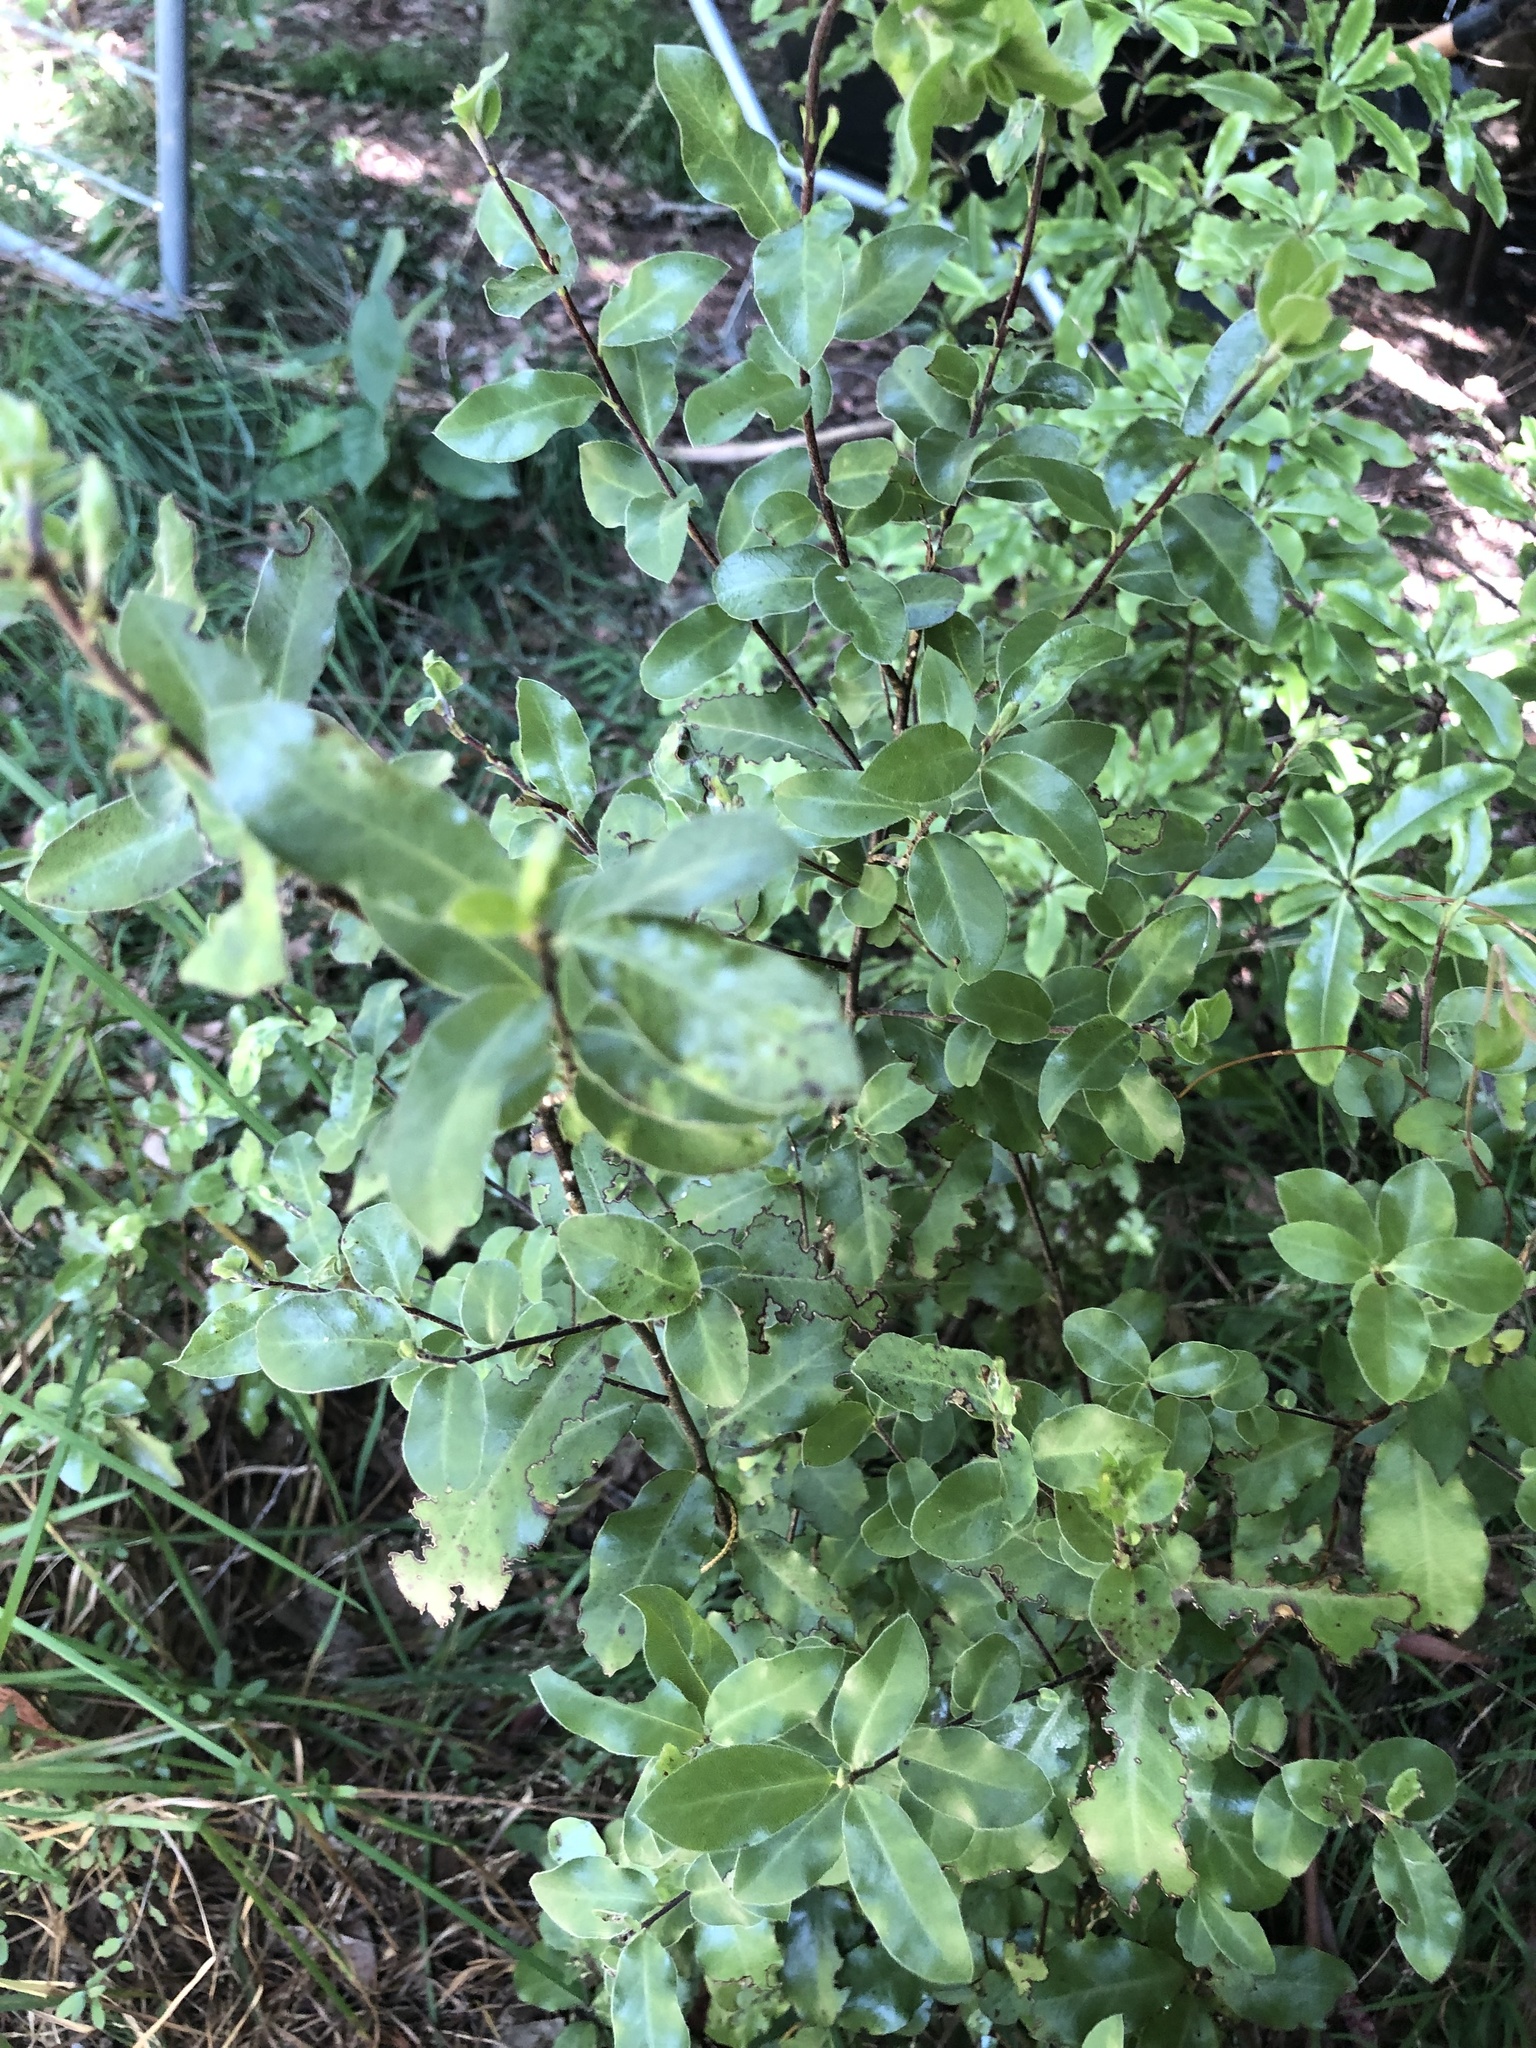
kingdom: Plantae
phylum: Tracheophyta
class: Magnoliopsida
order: Apiales
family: Pittosporaceae
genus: Pittosporum
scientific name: Pittosporum tenuifolium
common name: Kohuhu
